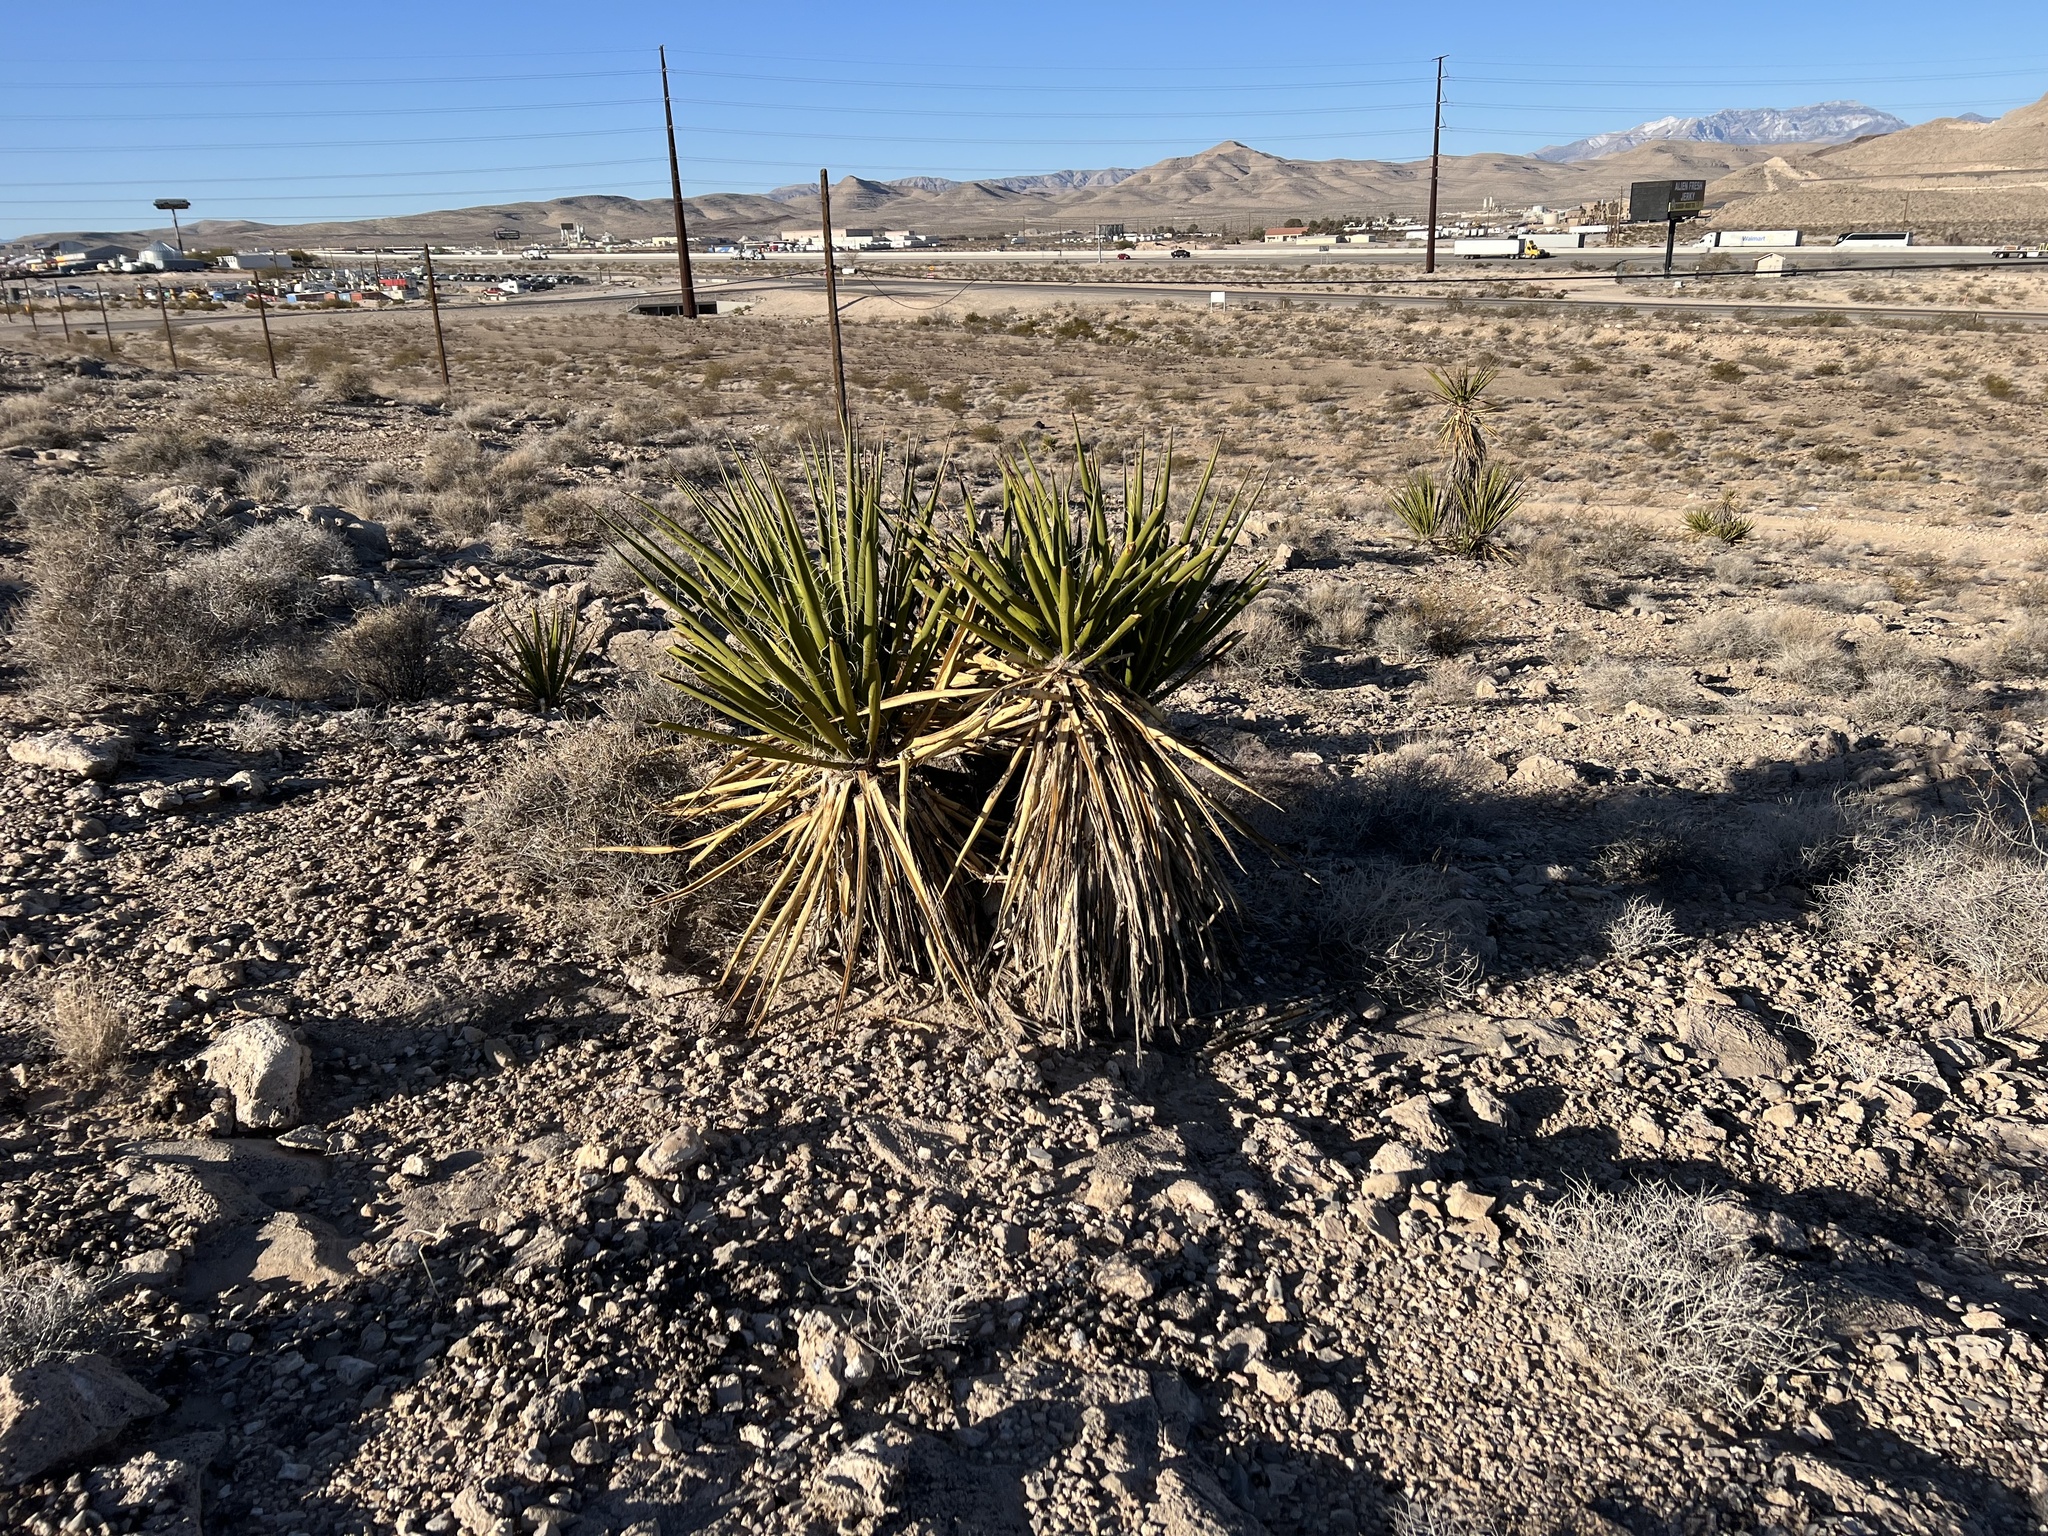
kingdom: Plantae
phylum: Tracheophyta
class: Liliopsida
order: Asparagales
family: Asparagaceae
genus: Yucca
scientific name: Yucca schidigera
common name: Mojave yucca
